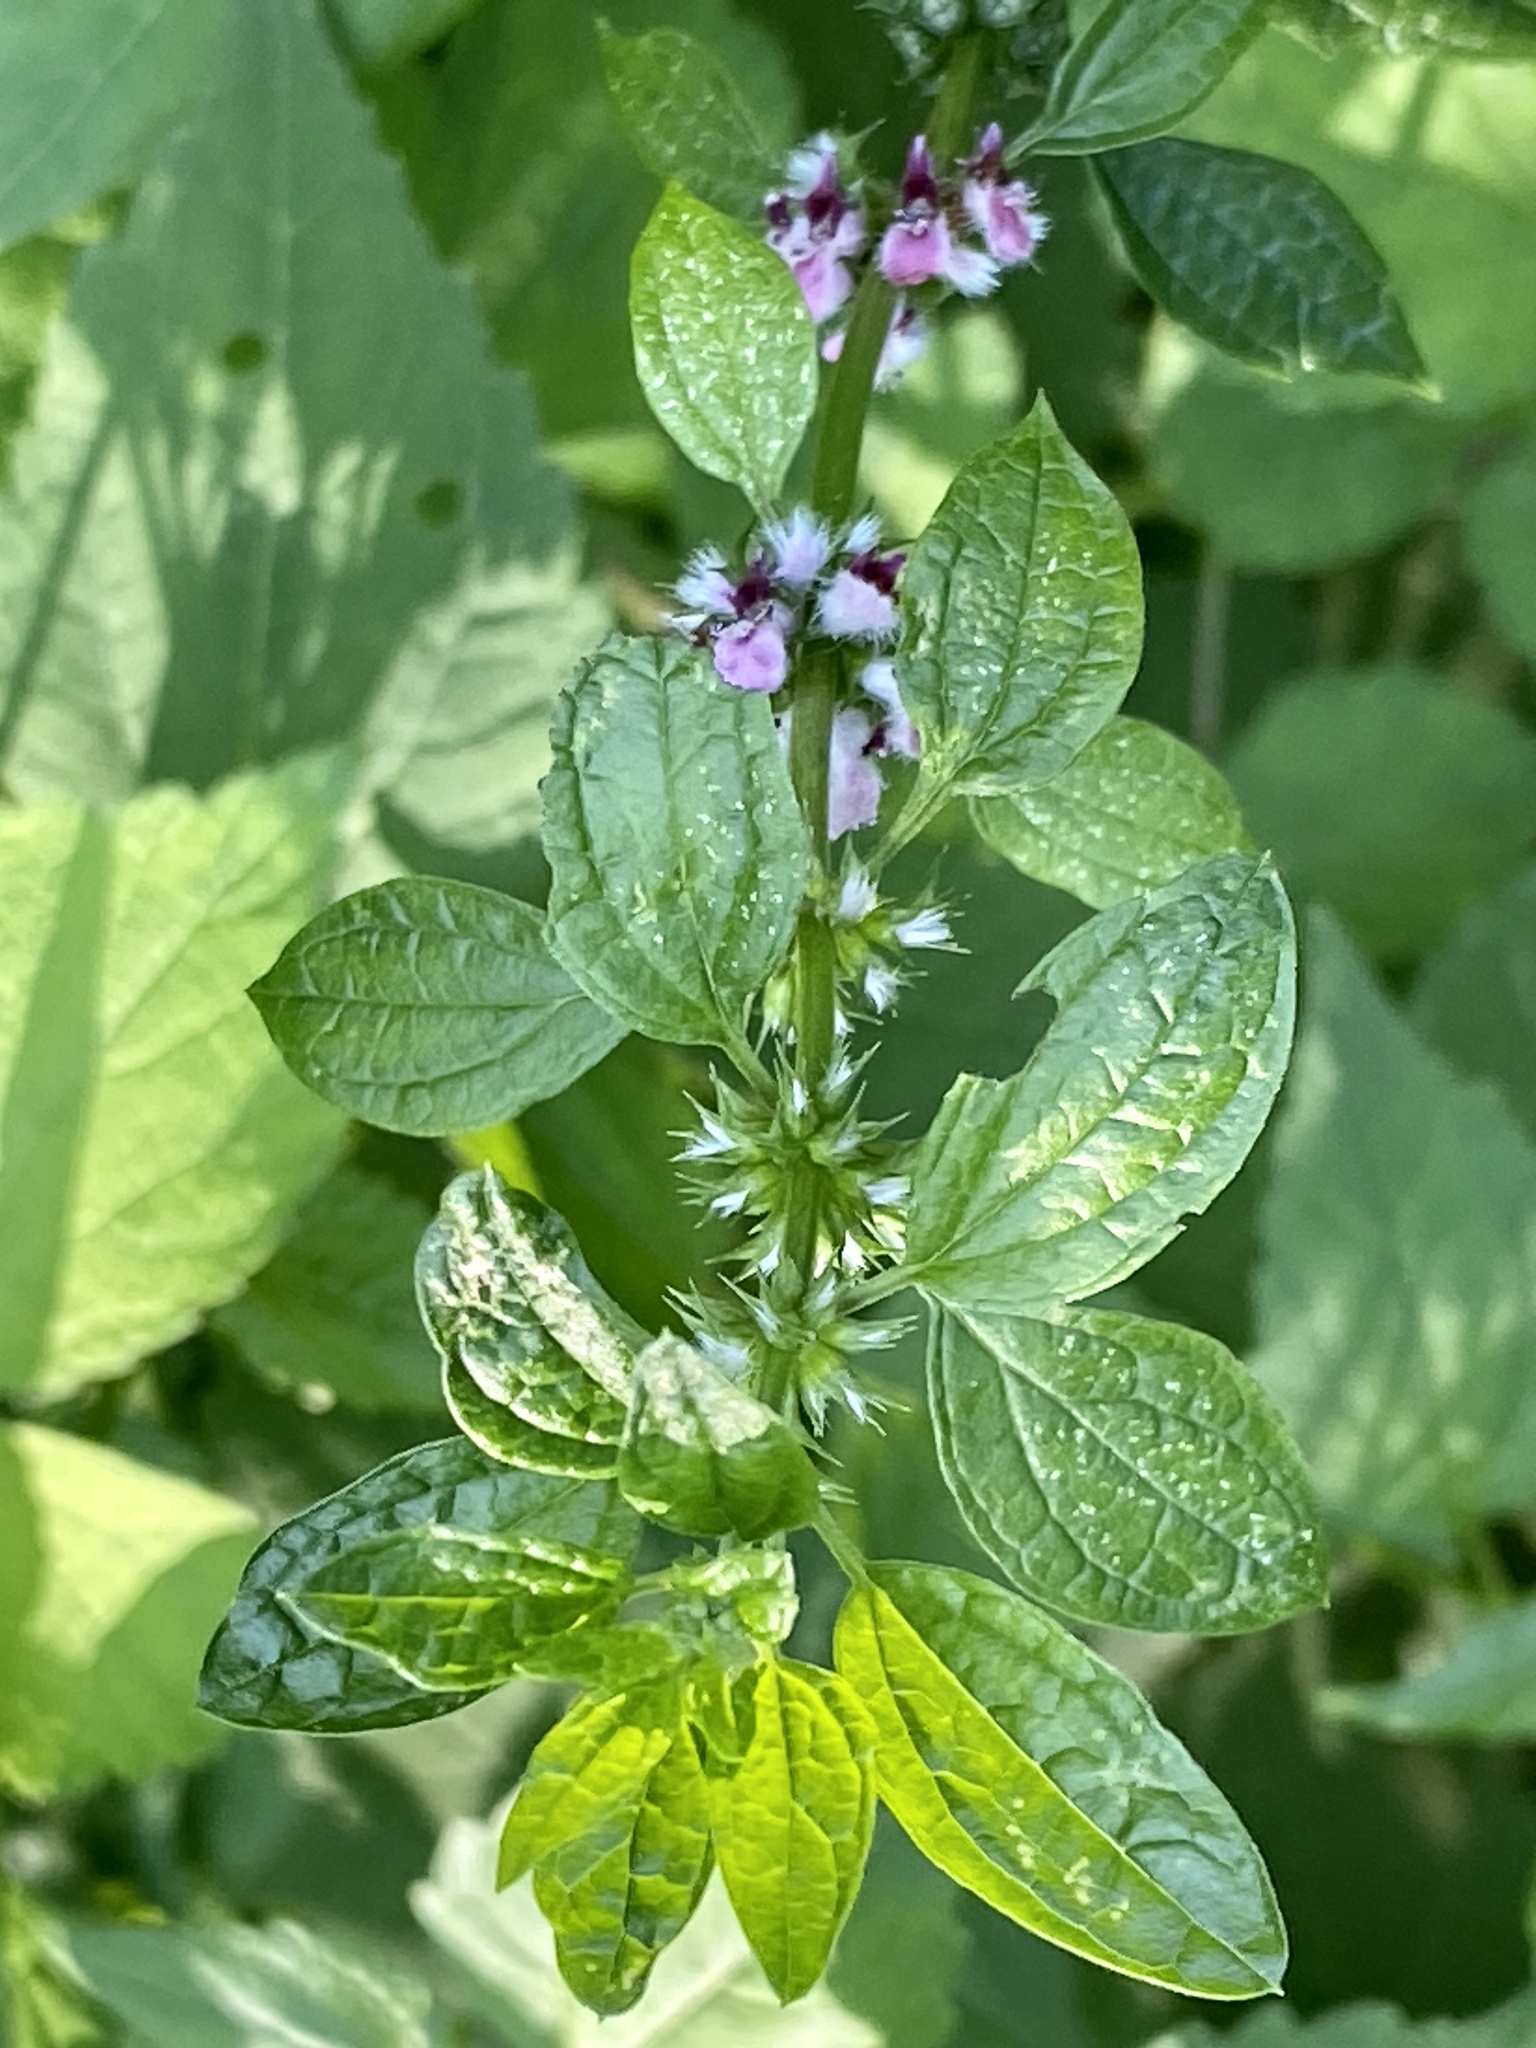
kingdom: Plantae
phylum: Tracheophyta
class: Magnoliopsida
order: Lamiales
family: Lamiaceae
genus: Leonurus
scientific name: Leonurus cardiaca
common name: Motherwort
